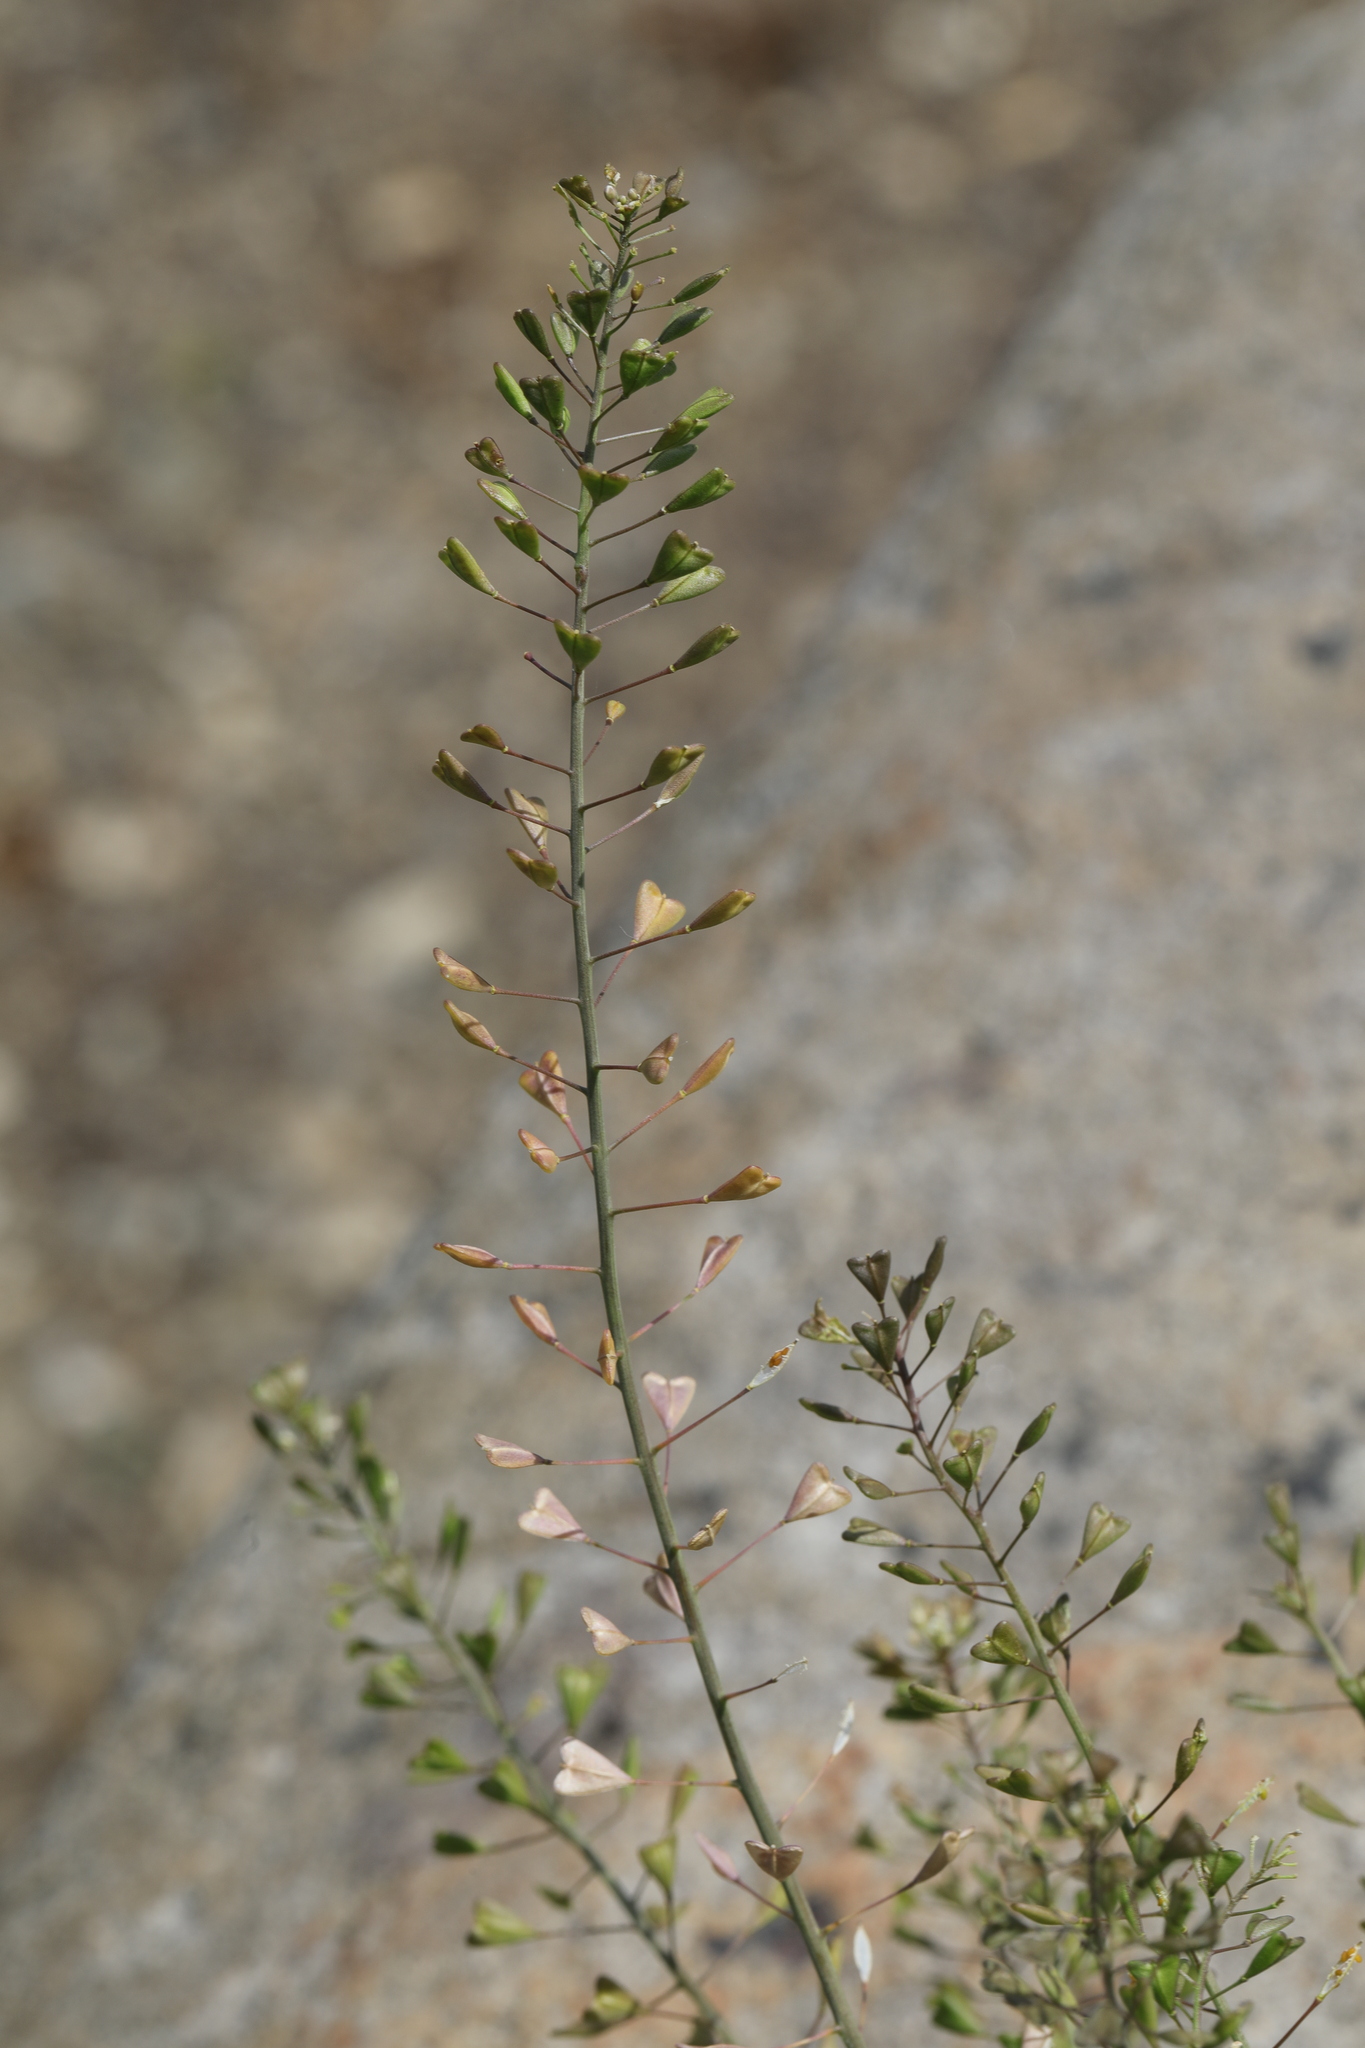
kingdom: Plantae
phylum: Tracheophyta
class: Magnoliopsida
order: Brassicales
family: Brassicaceae
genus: Capsella
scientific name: Capsella bursa-pastoris
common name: Shepherd's purse
